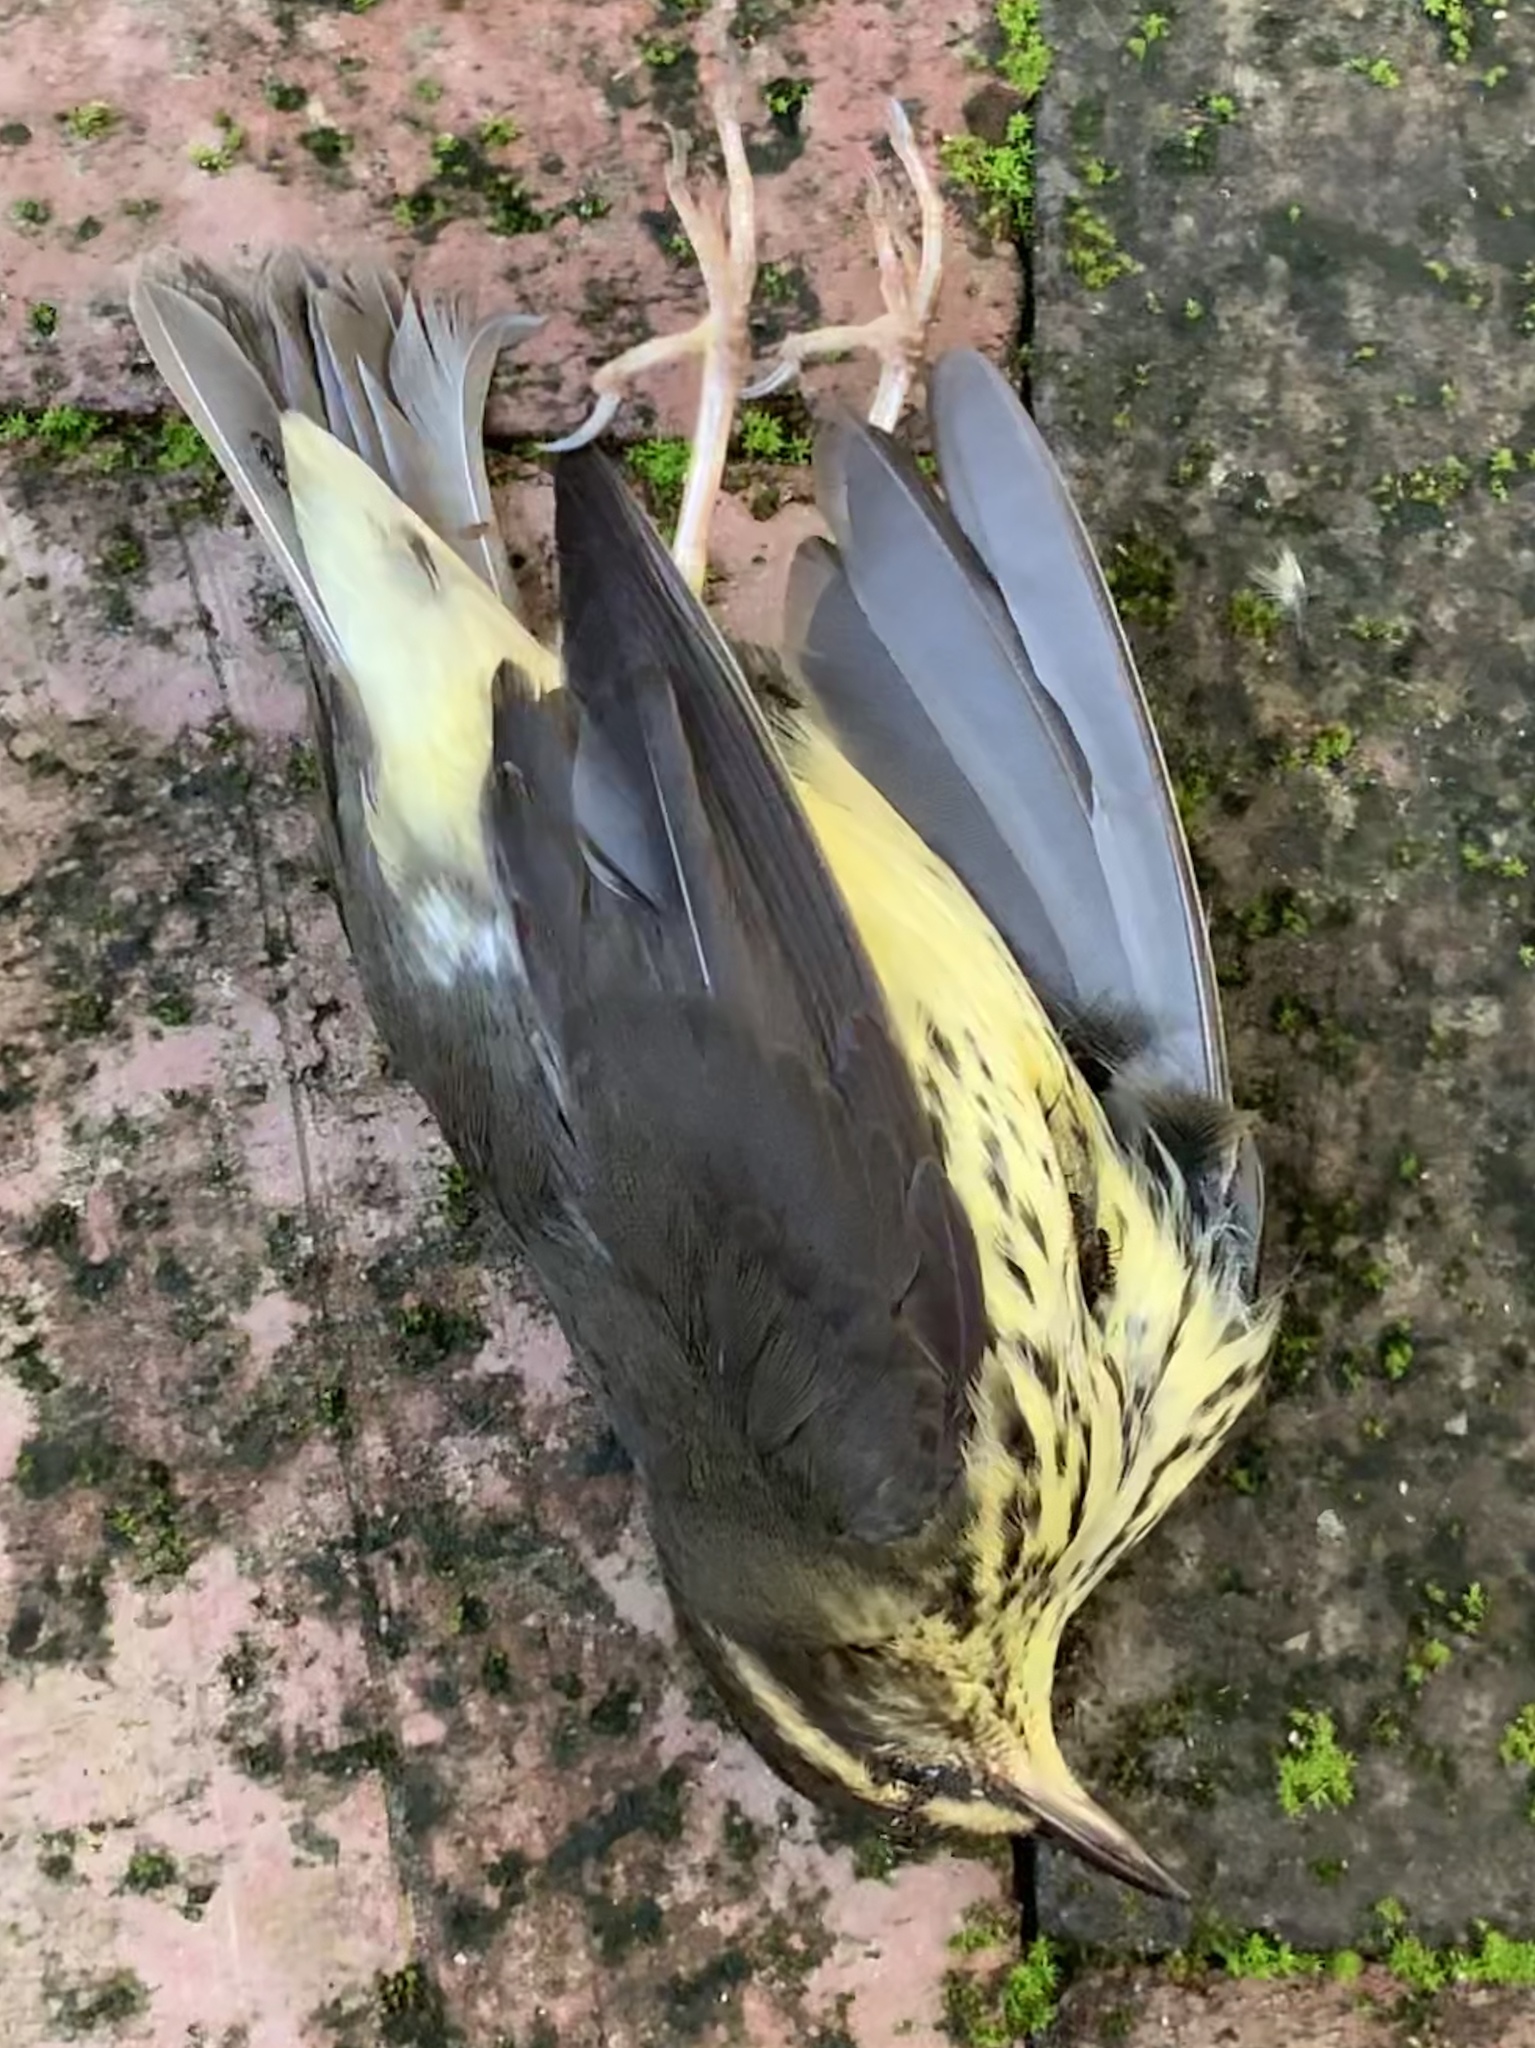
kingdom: Animalia
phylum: Chordata
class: Aves
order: Passeriformes
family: Parulidae
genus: Parkesia
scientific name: Parkesia noveboracensis
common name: Northern waterthrush
